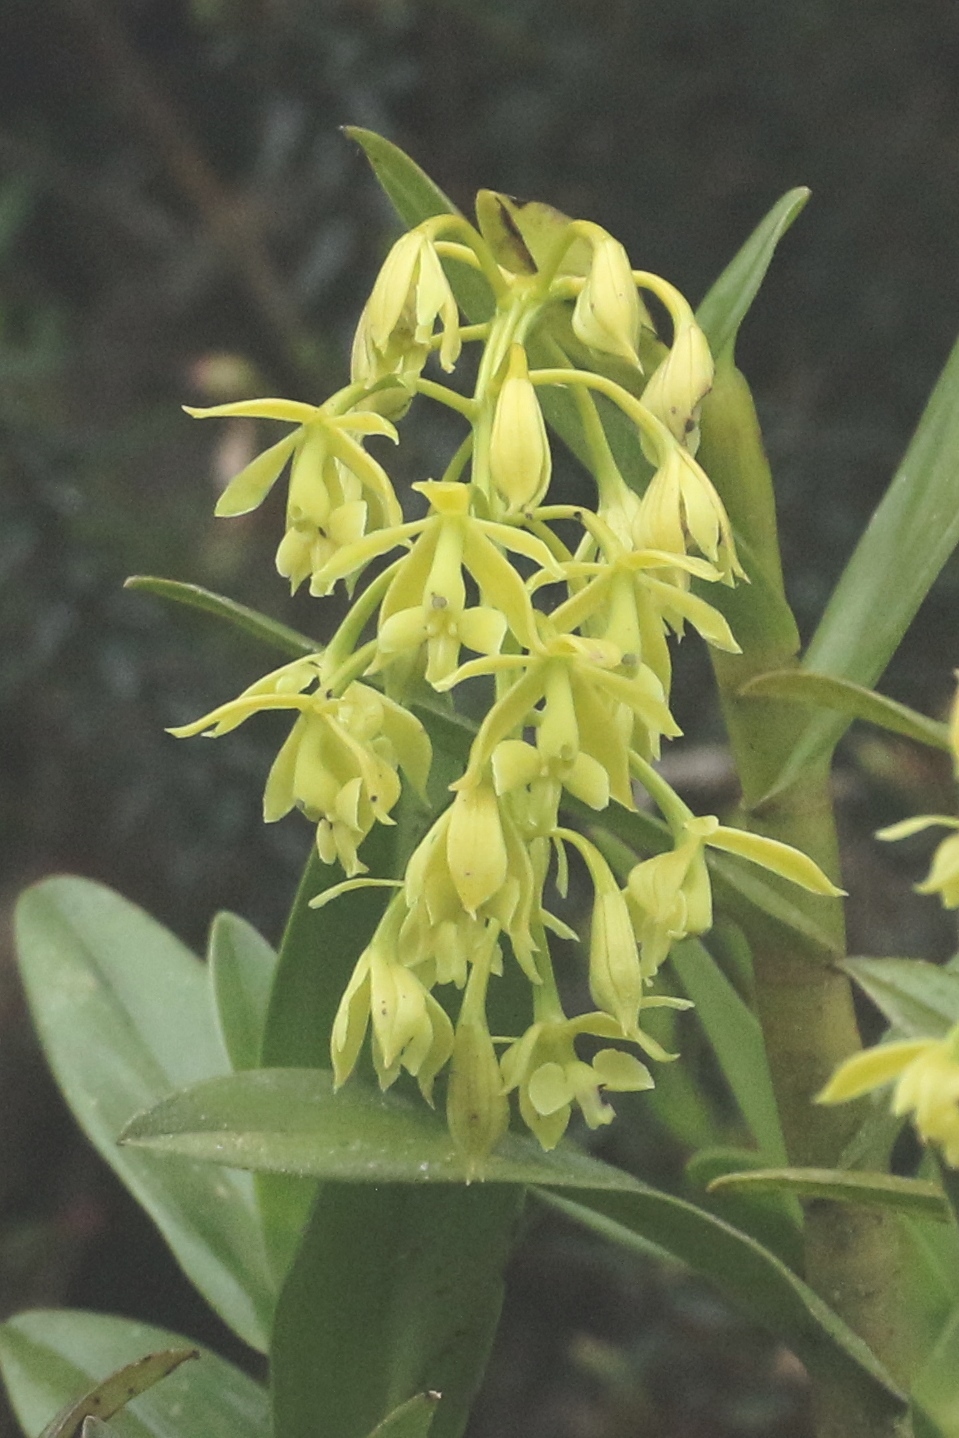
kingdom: Plantae
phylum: Tracheophyta
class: Liliopsida
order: Asparagales
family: Orchidaceae
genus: Epidendrum
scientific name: Epidendrum zipaquiranum
